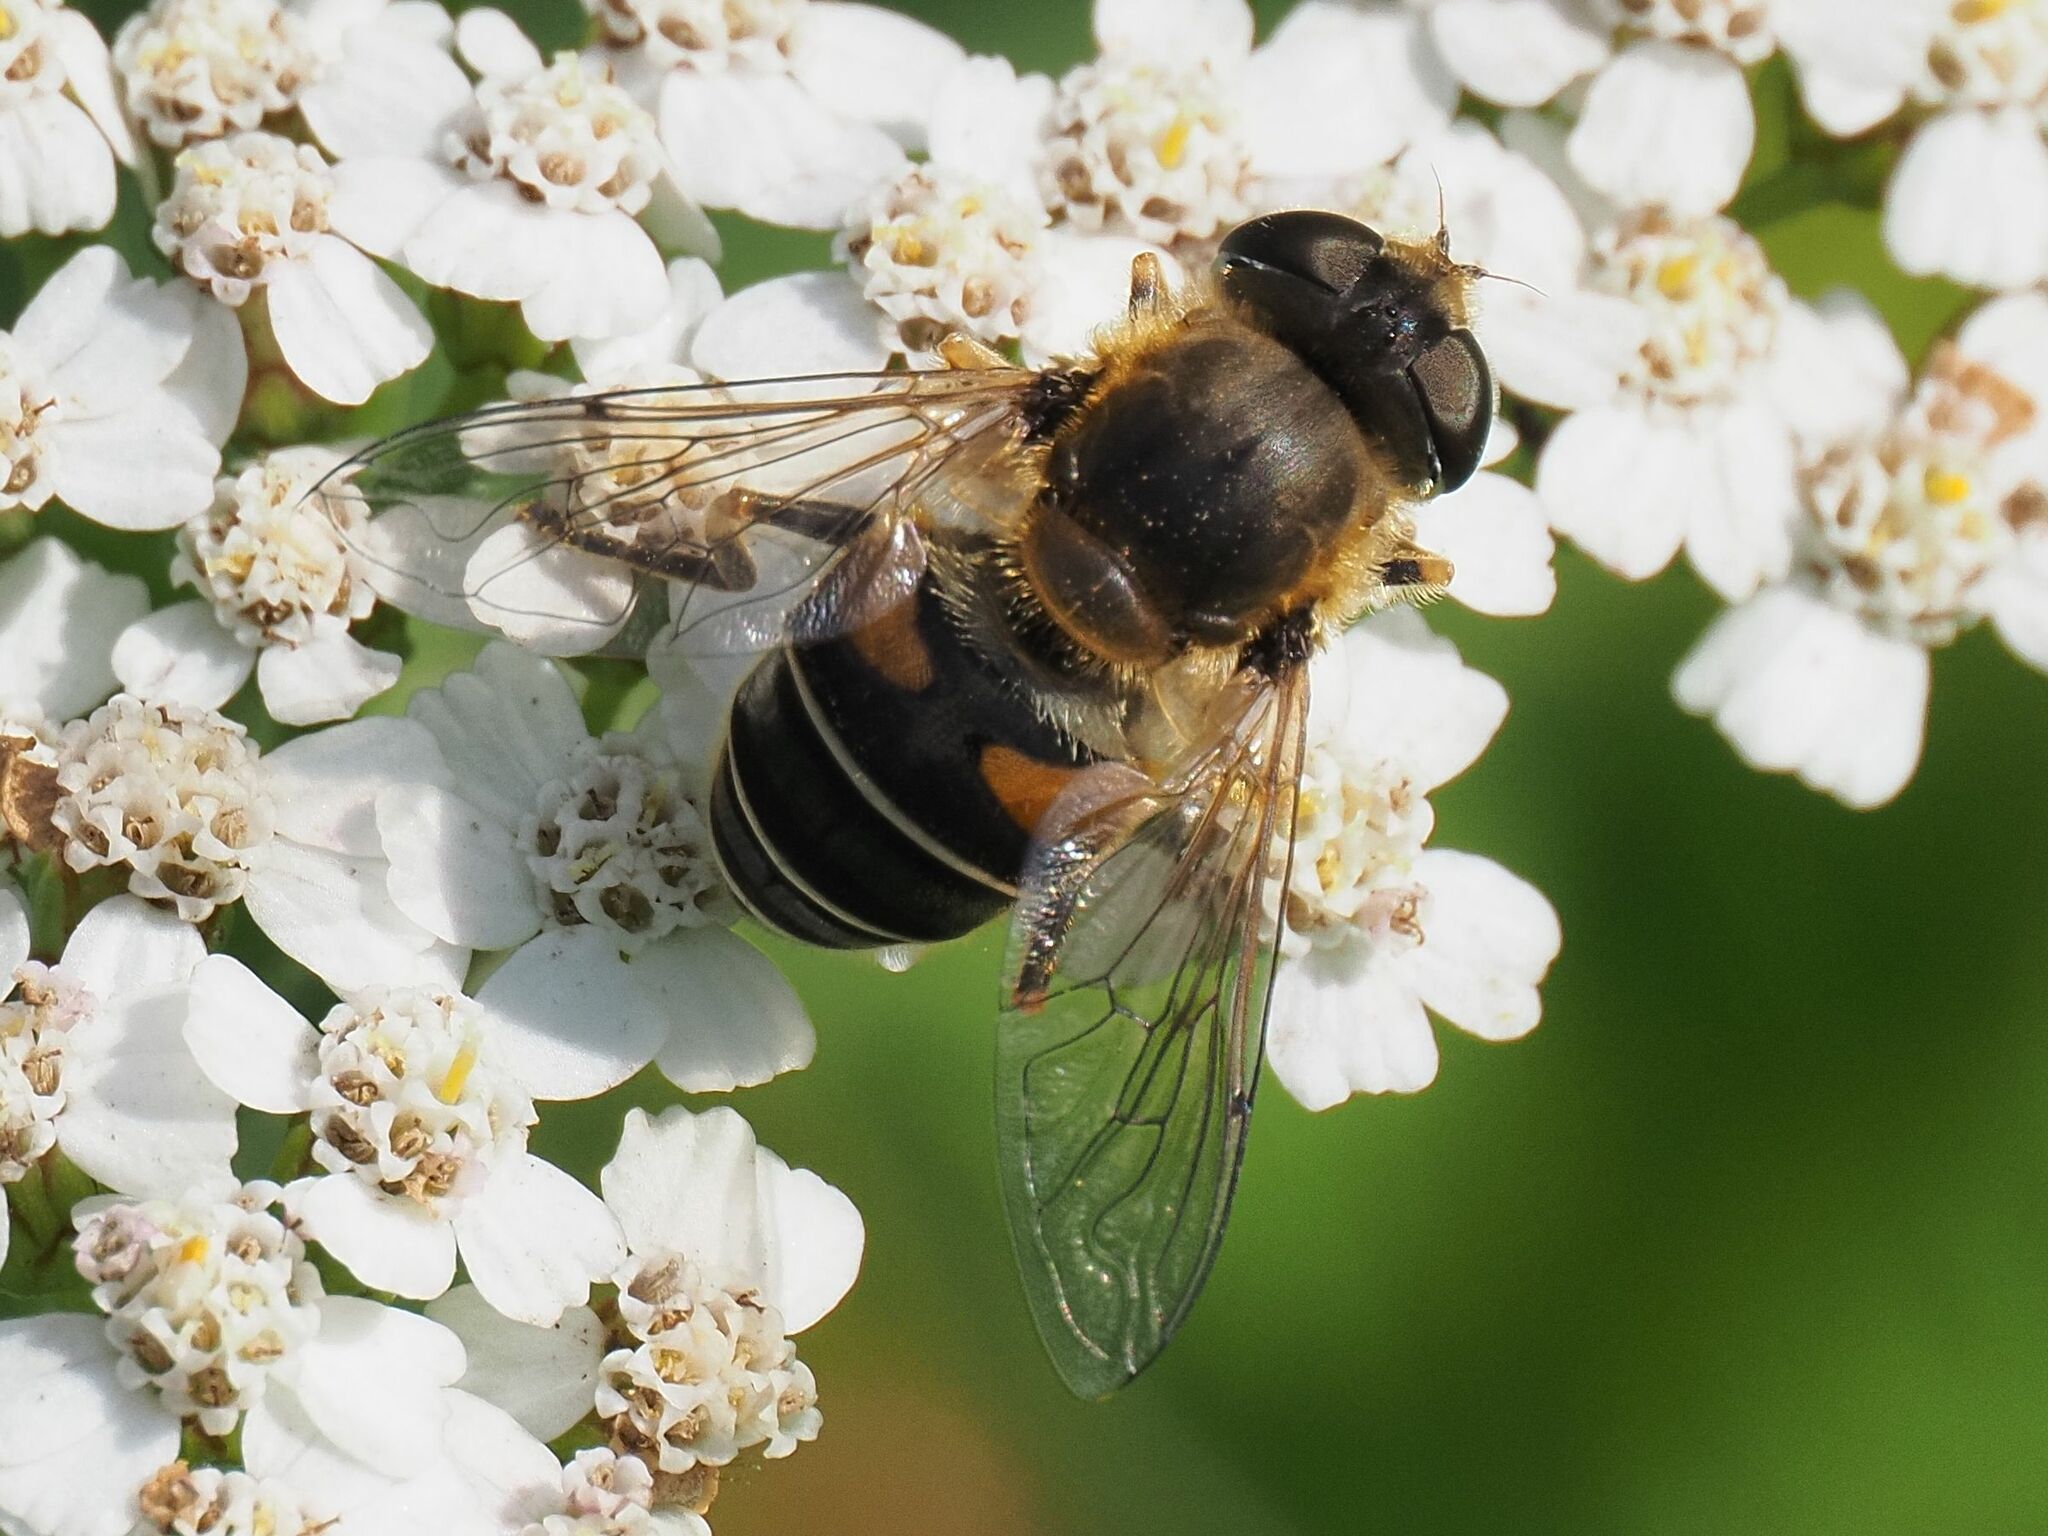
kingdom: Animalia
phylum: Arthropoda
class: Insecta
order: Diptera
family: Syrphidae
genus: Eristalis
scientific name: Eristalis nemorum
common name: Orange-spined drone fly
